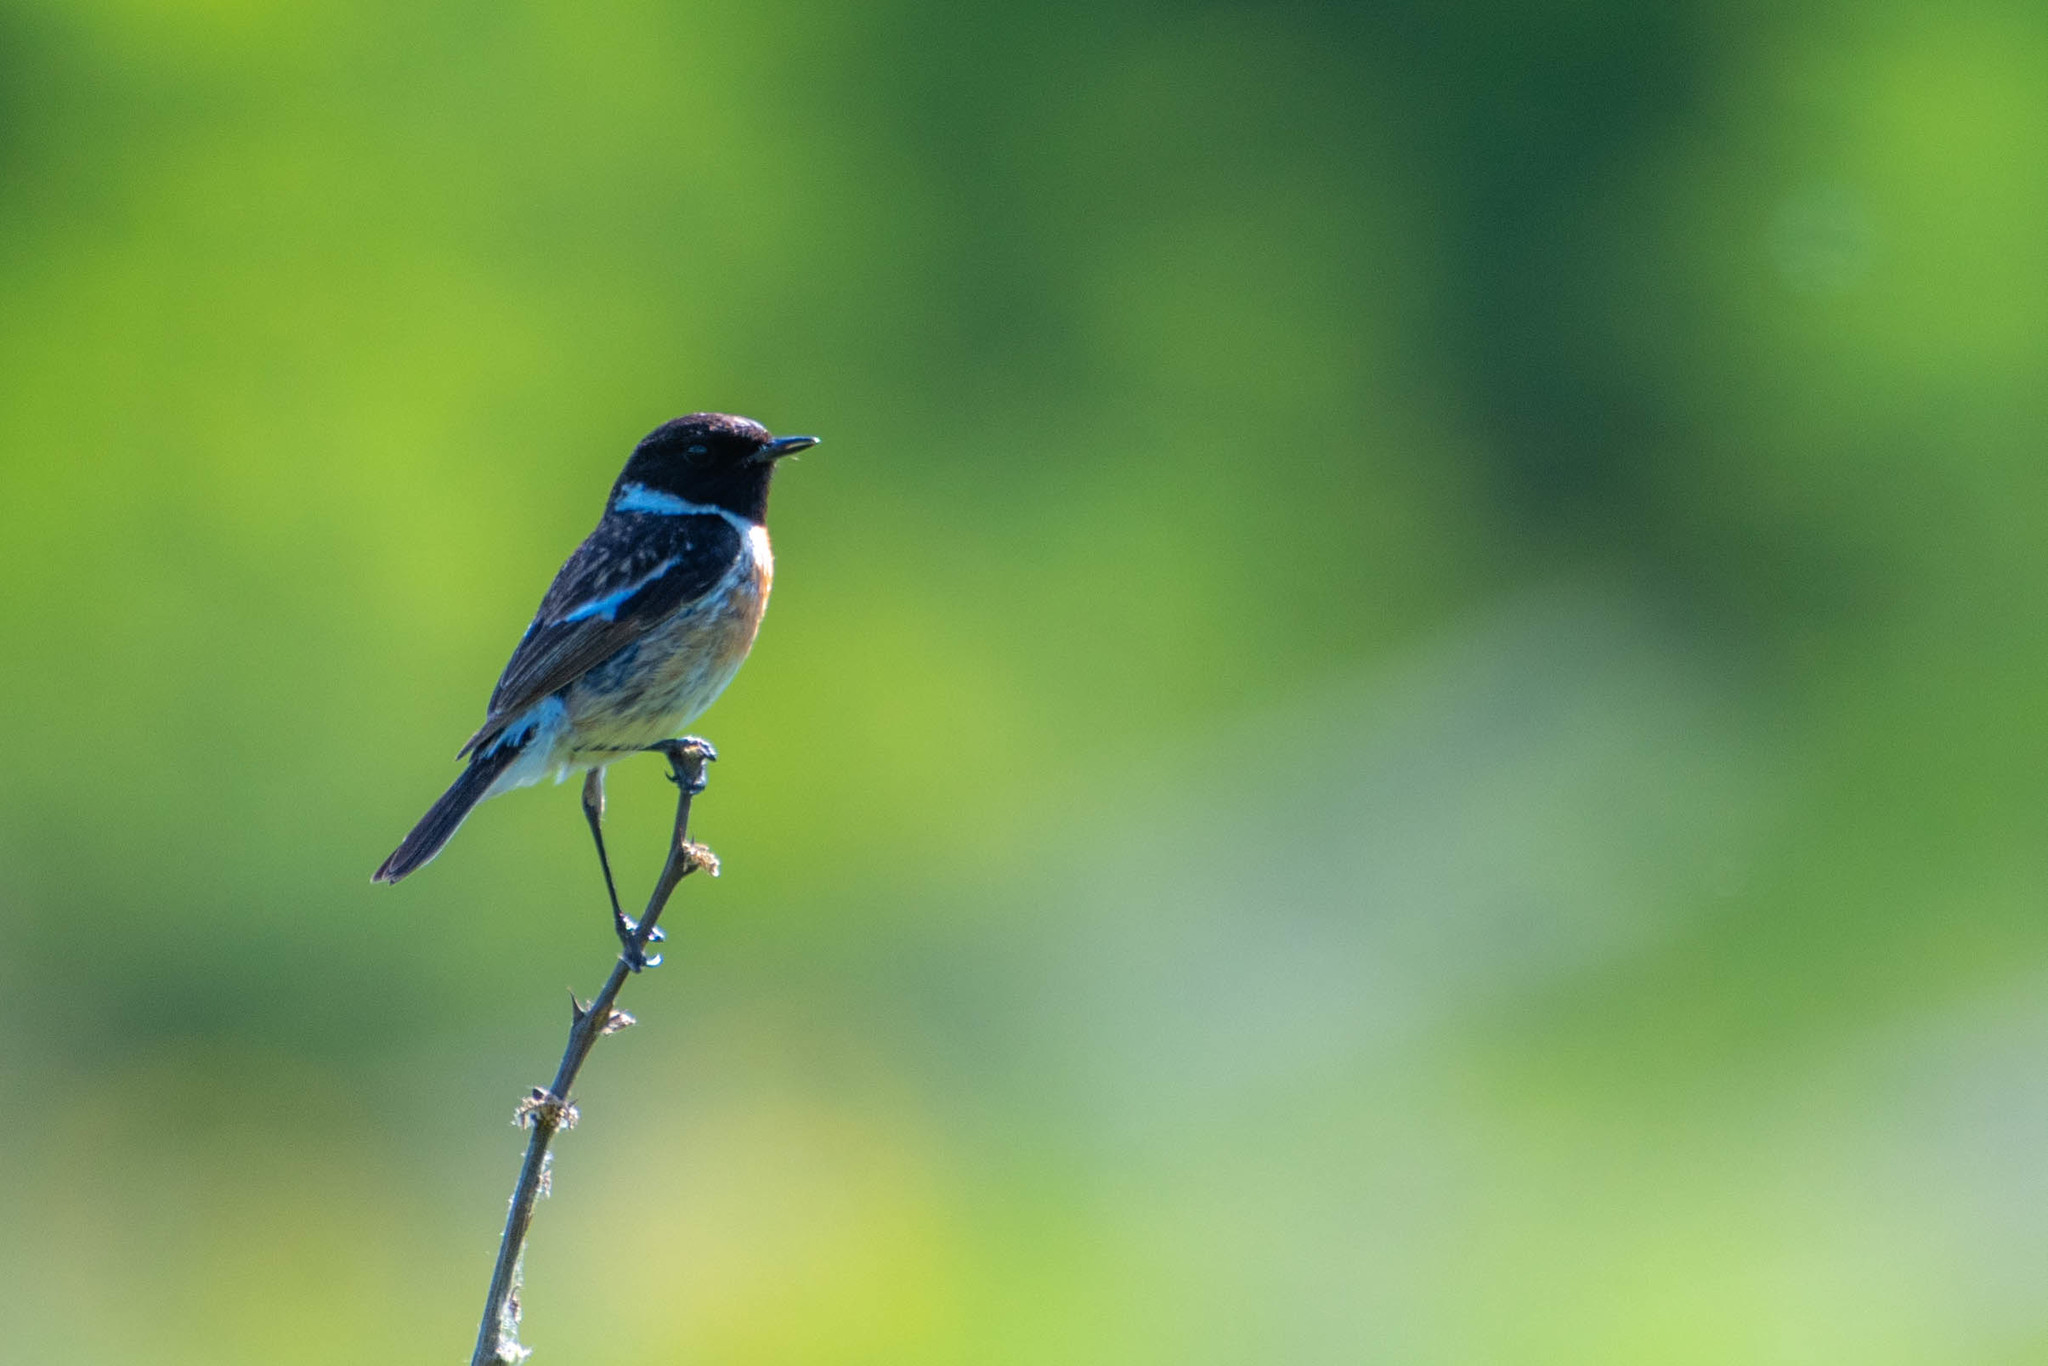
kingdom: Animalia
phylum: Chordata
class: Aves
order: Passeriformes
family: Muscicapidae
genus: Saxicola
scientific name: Saxicola rubicola
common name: European stonechat
